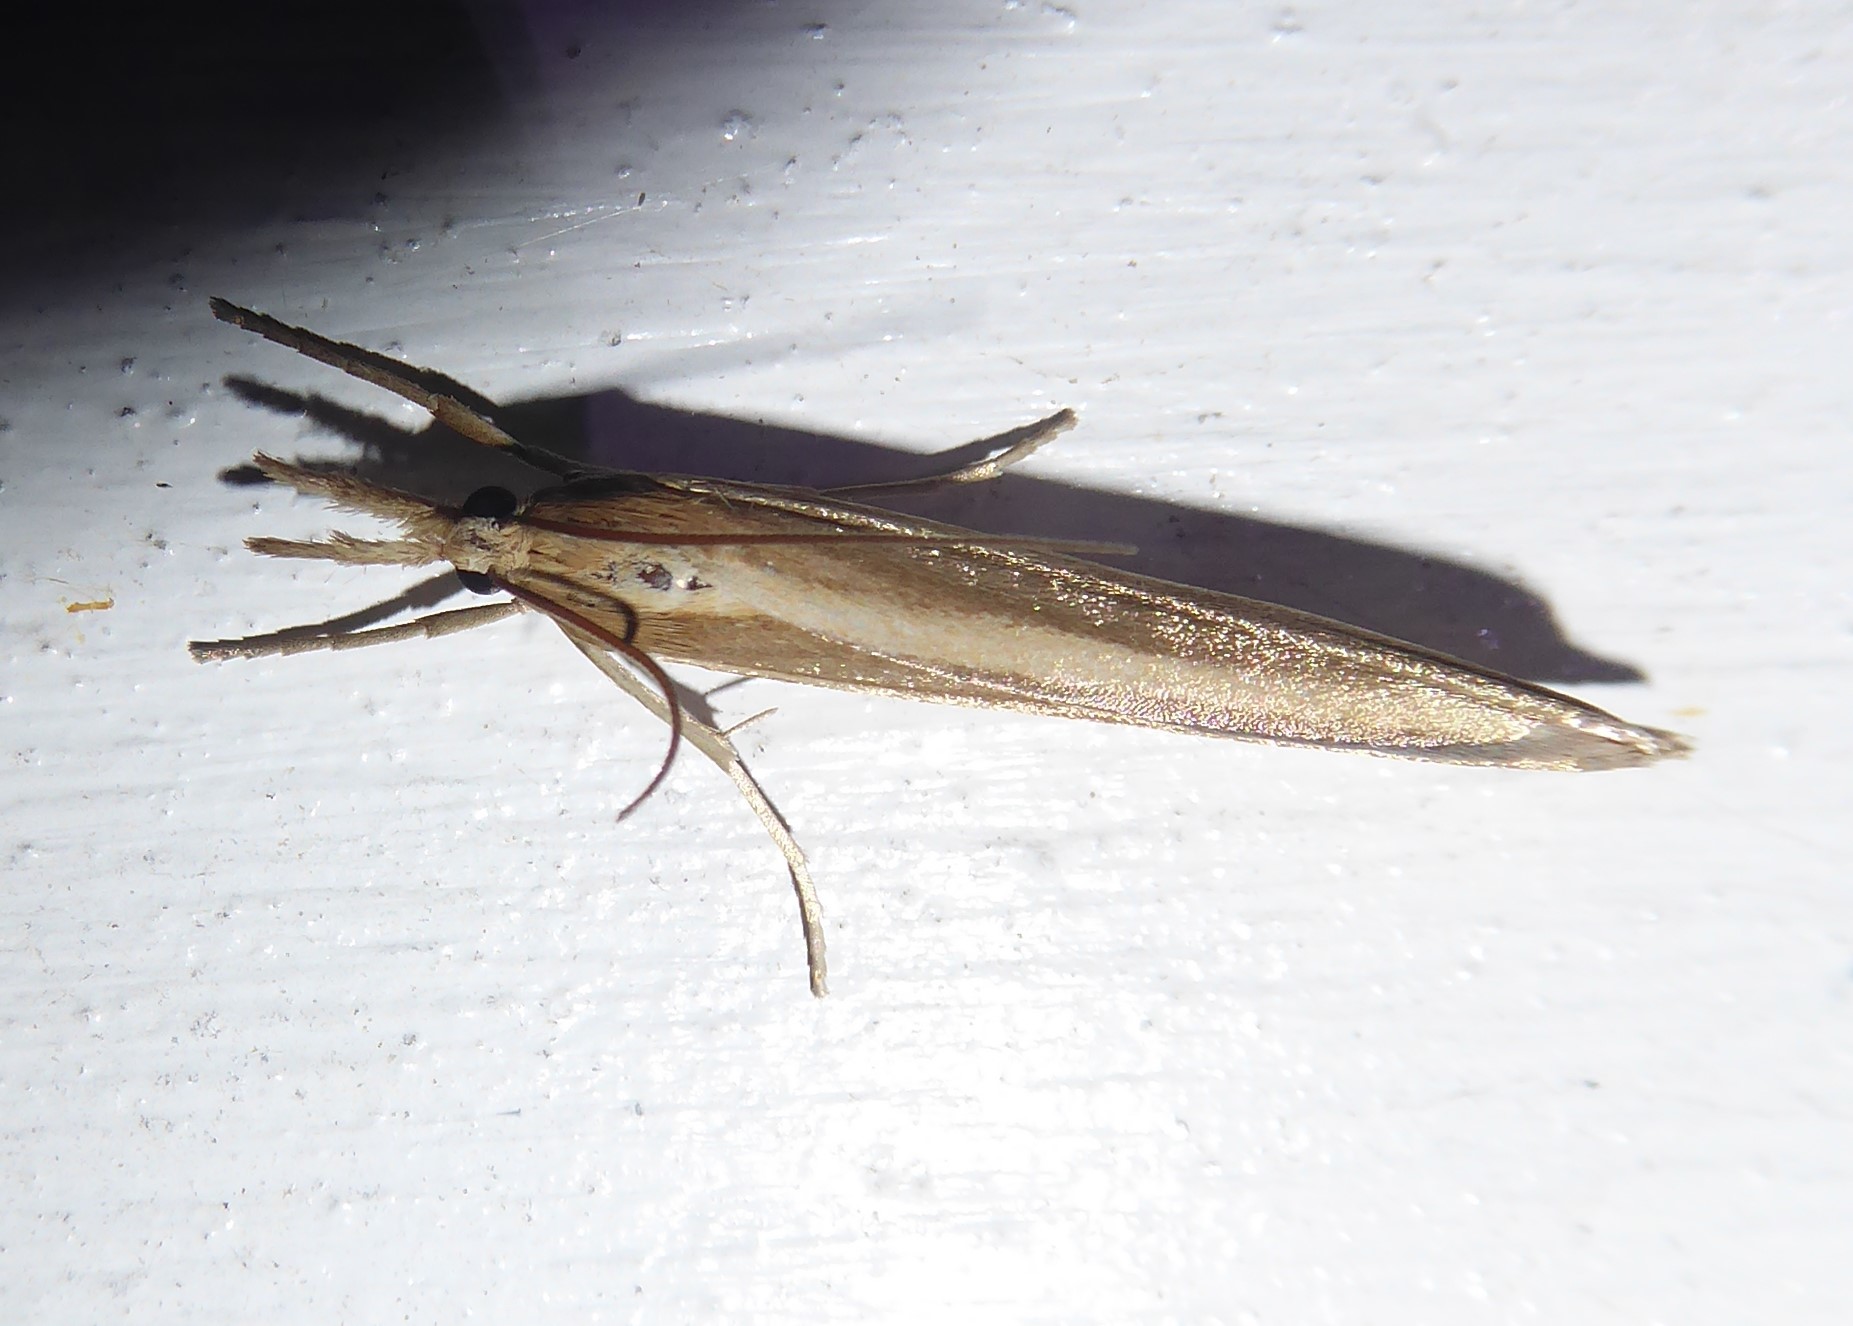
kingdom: Animalia
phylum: Arthropoda
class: Insecta
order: Lepidoptera
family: Crambidae
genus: Orocrambus
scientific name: Orocrambus angustipennis
